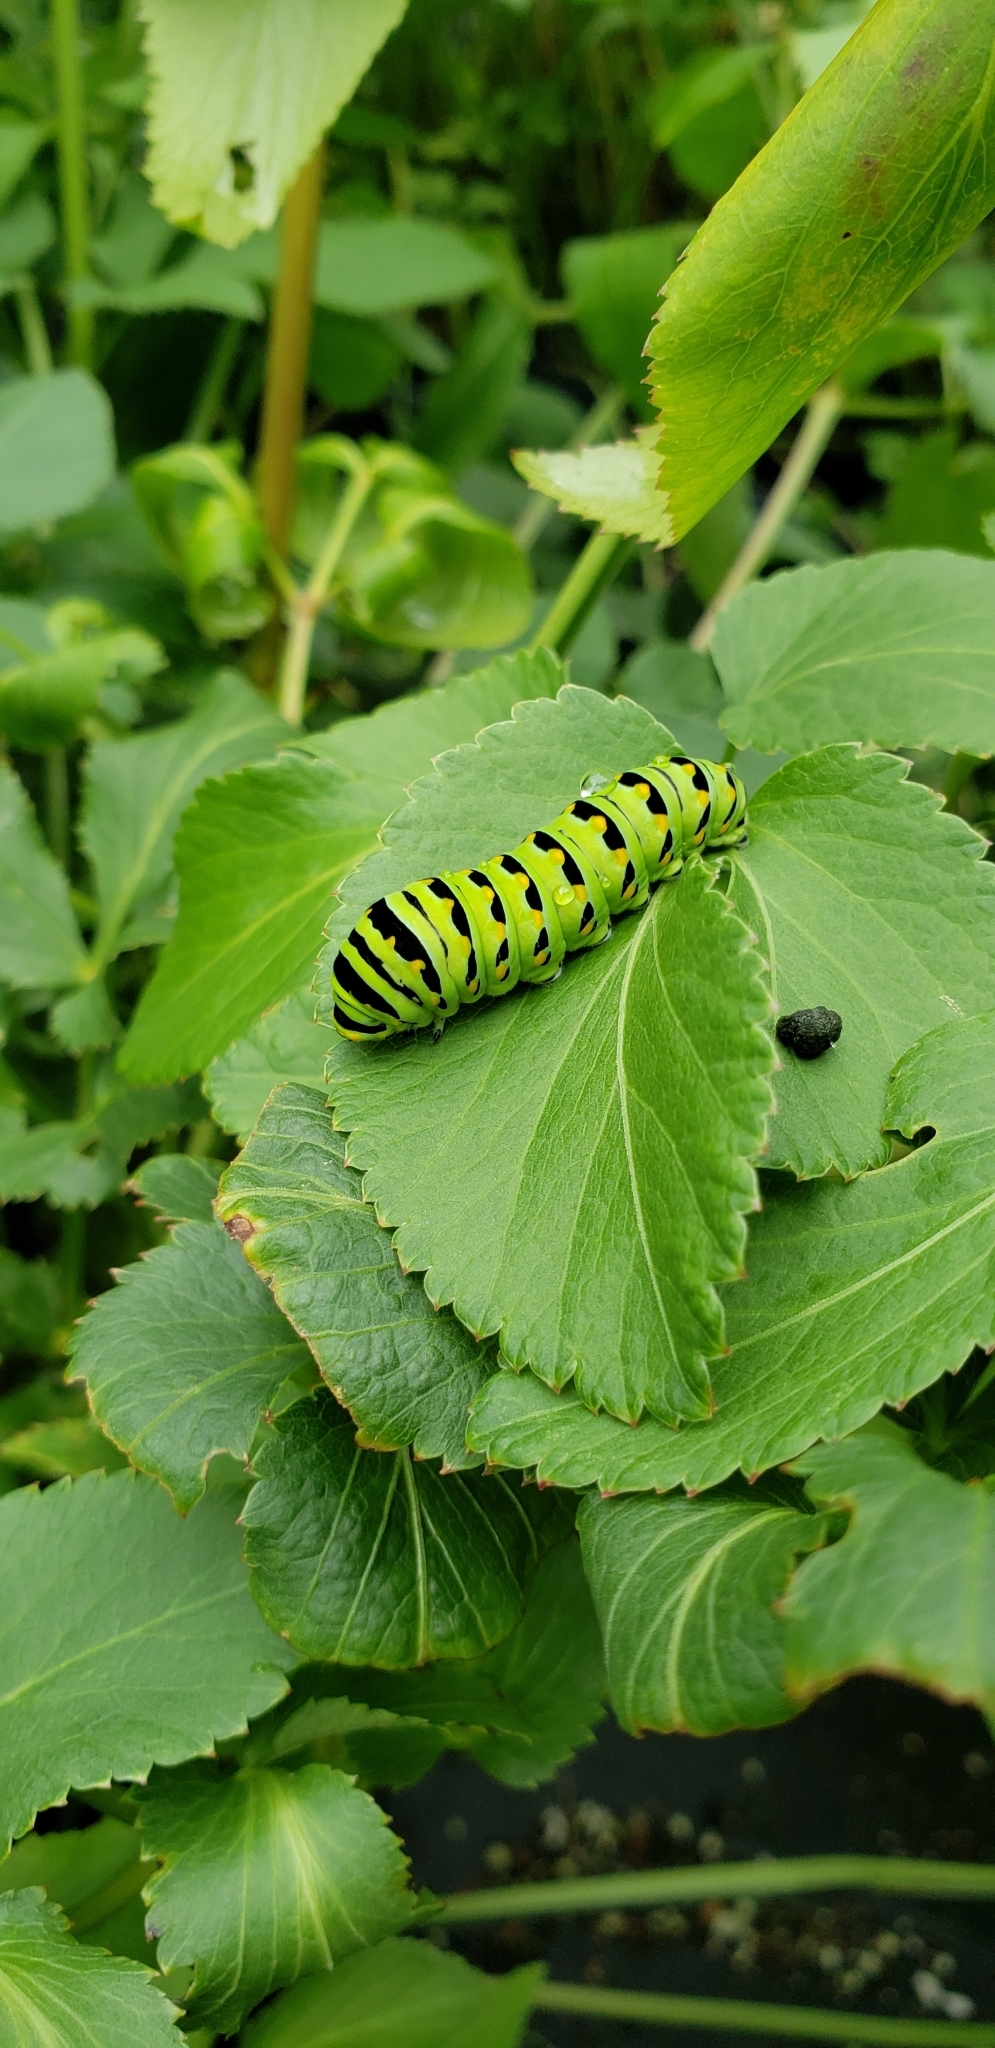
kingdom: Animalia
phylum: Arthropoda
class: Insecta
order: Lepidoptera
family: Papilionidae
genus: Papilio
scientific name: Papilio polyxenes
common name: Black swallowtail
